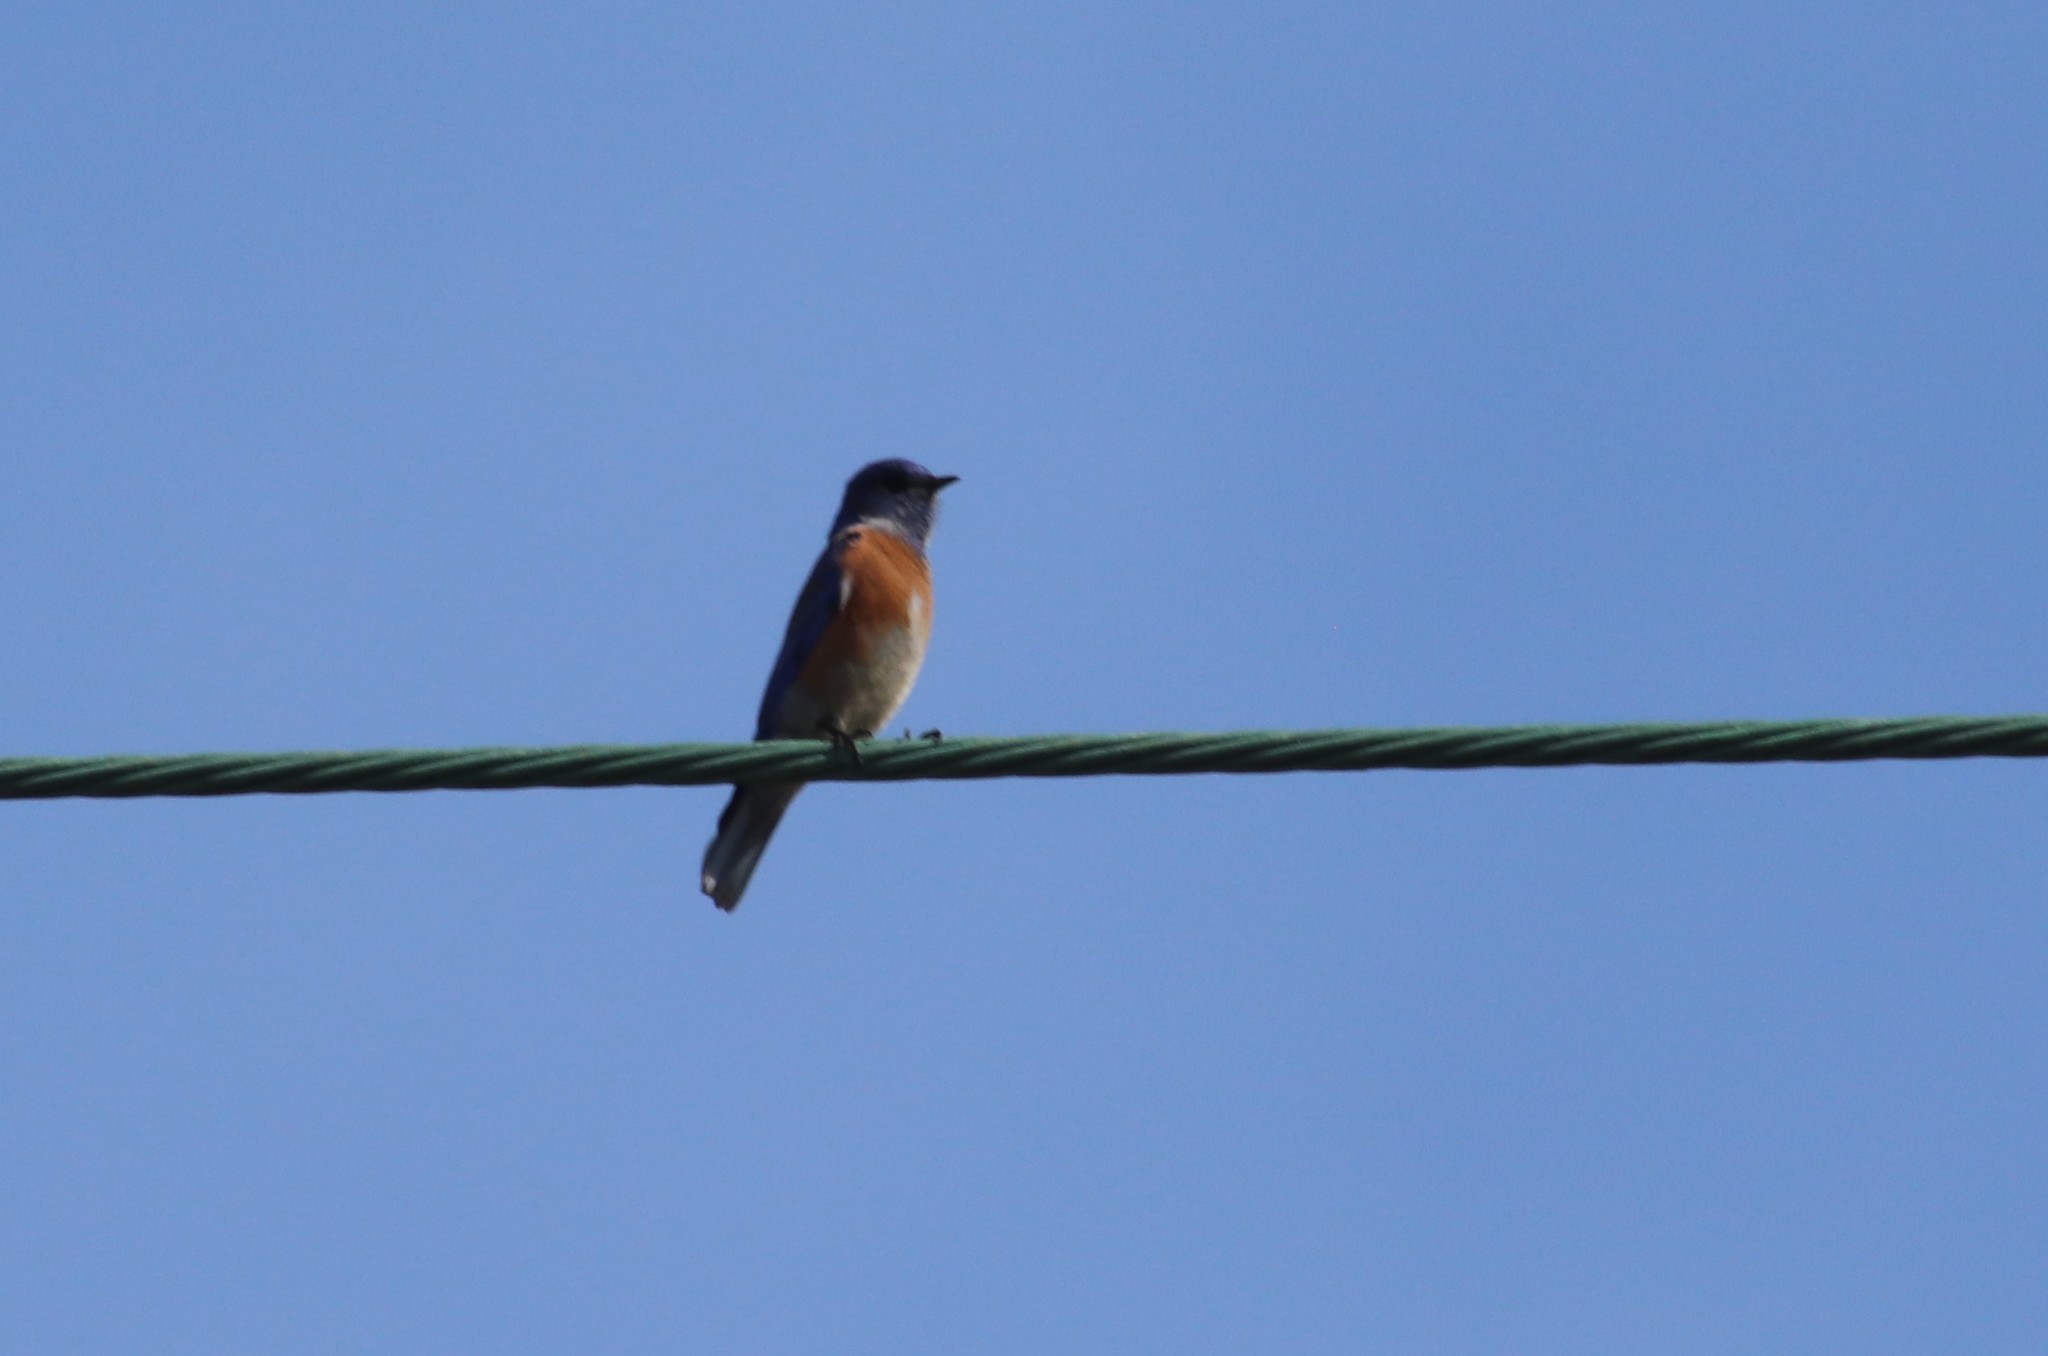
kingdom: Animalia
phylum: Chordata
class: Aves
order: Passeriformes
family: Turdidae
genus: Sialia
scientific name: Sialia mexicana
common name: Western bluebird
